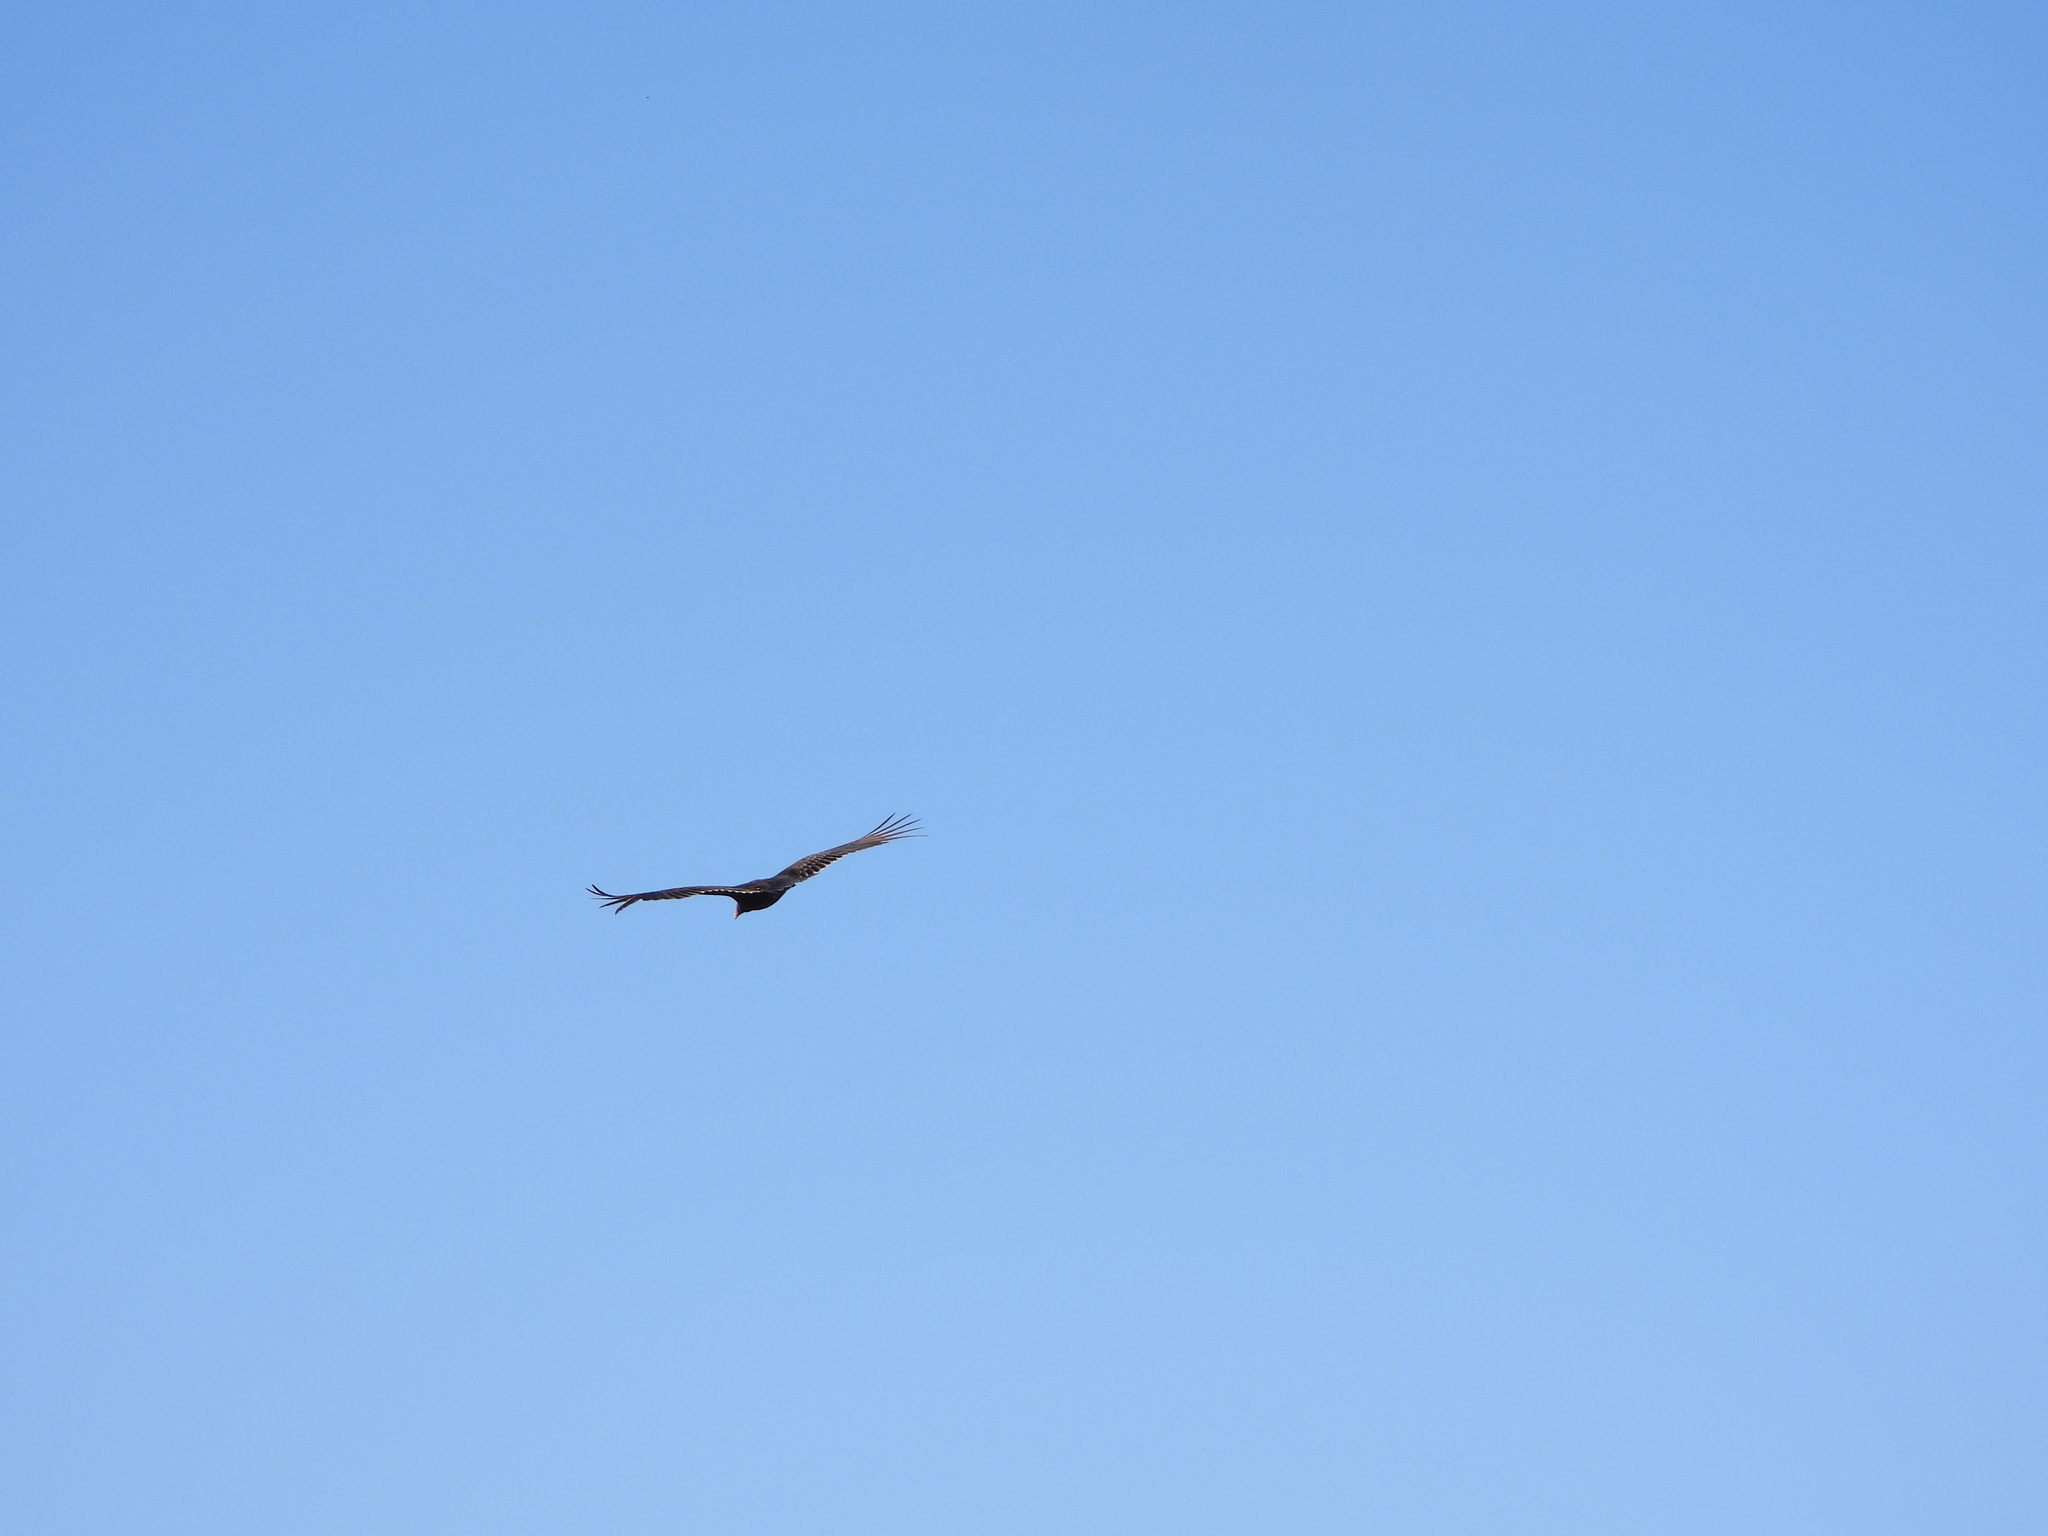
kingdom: Animalia
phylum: Chordata
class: Aves
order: Accipitriformes
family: Cathartidae
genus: Cathartes
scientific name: Cathartes aura
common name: Turkey vulture
